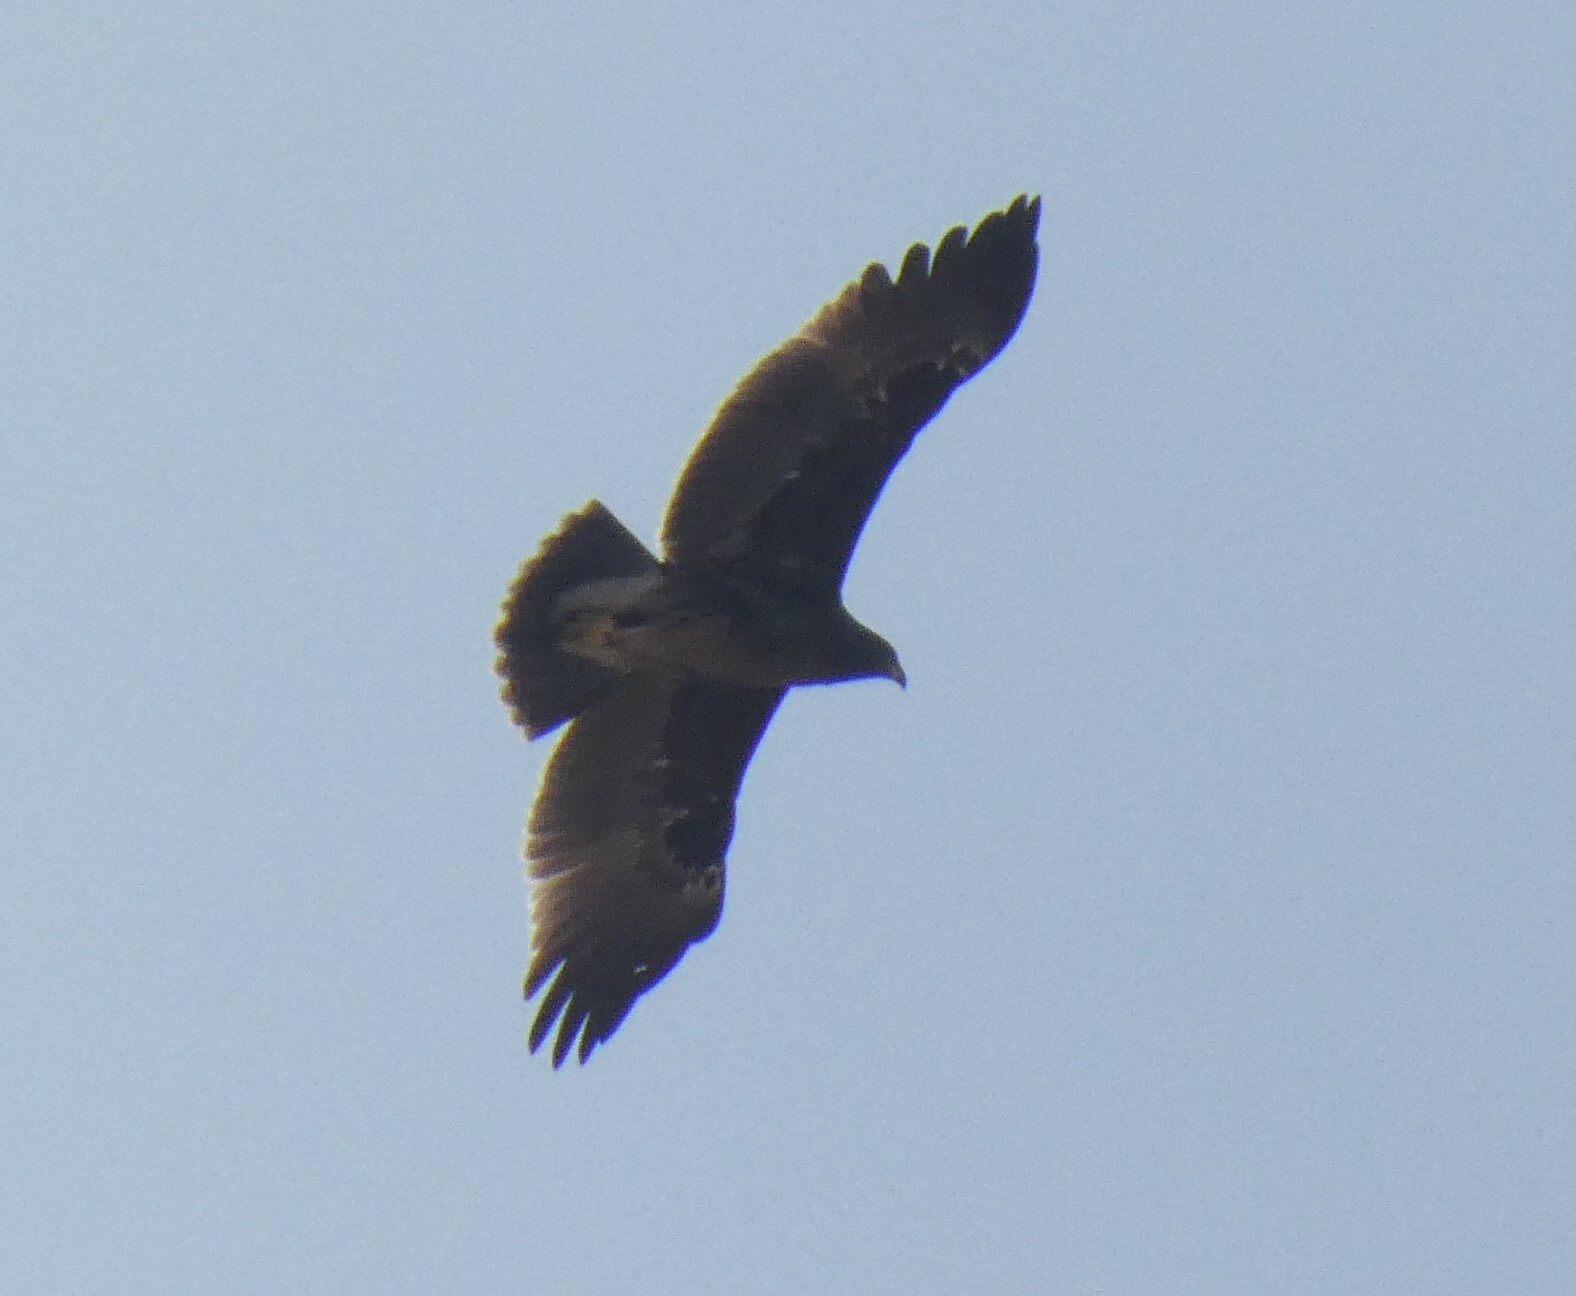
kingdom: Animalia
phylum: Chordata
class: Aves
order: Accipitriformes
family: Accipitridae
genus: Aquila
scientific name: Aquila clanga
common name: Greater spotted eagle
